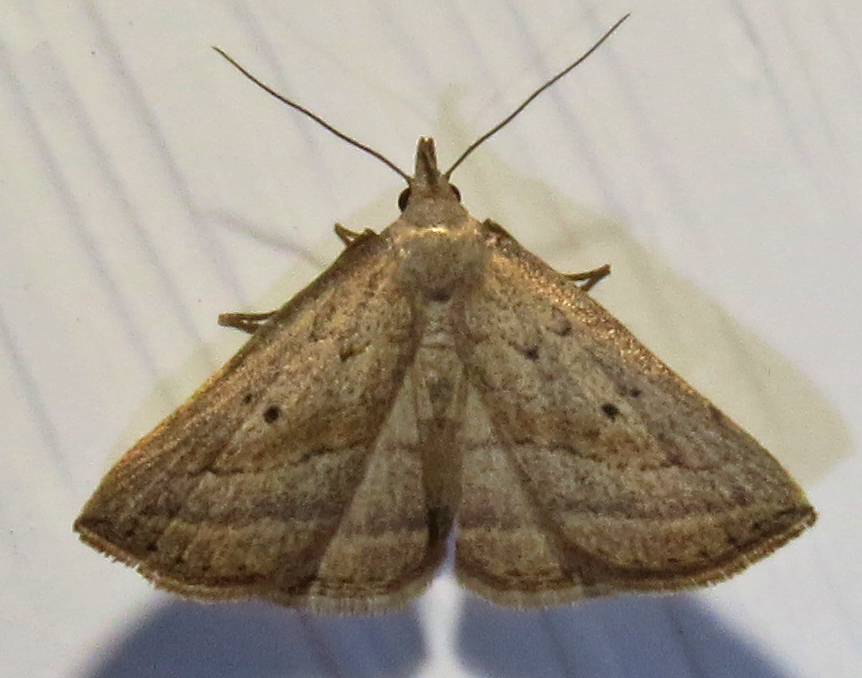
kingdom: Animalia
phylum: Arthropoda
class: Insecta
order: Lepidoptera
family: Erebidae
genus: Macrochilo
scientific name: Macrochilo hypocritalis
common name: Twin-dotted owlet
